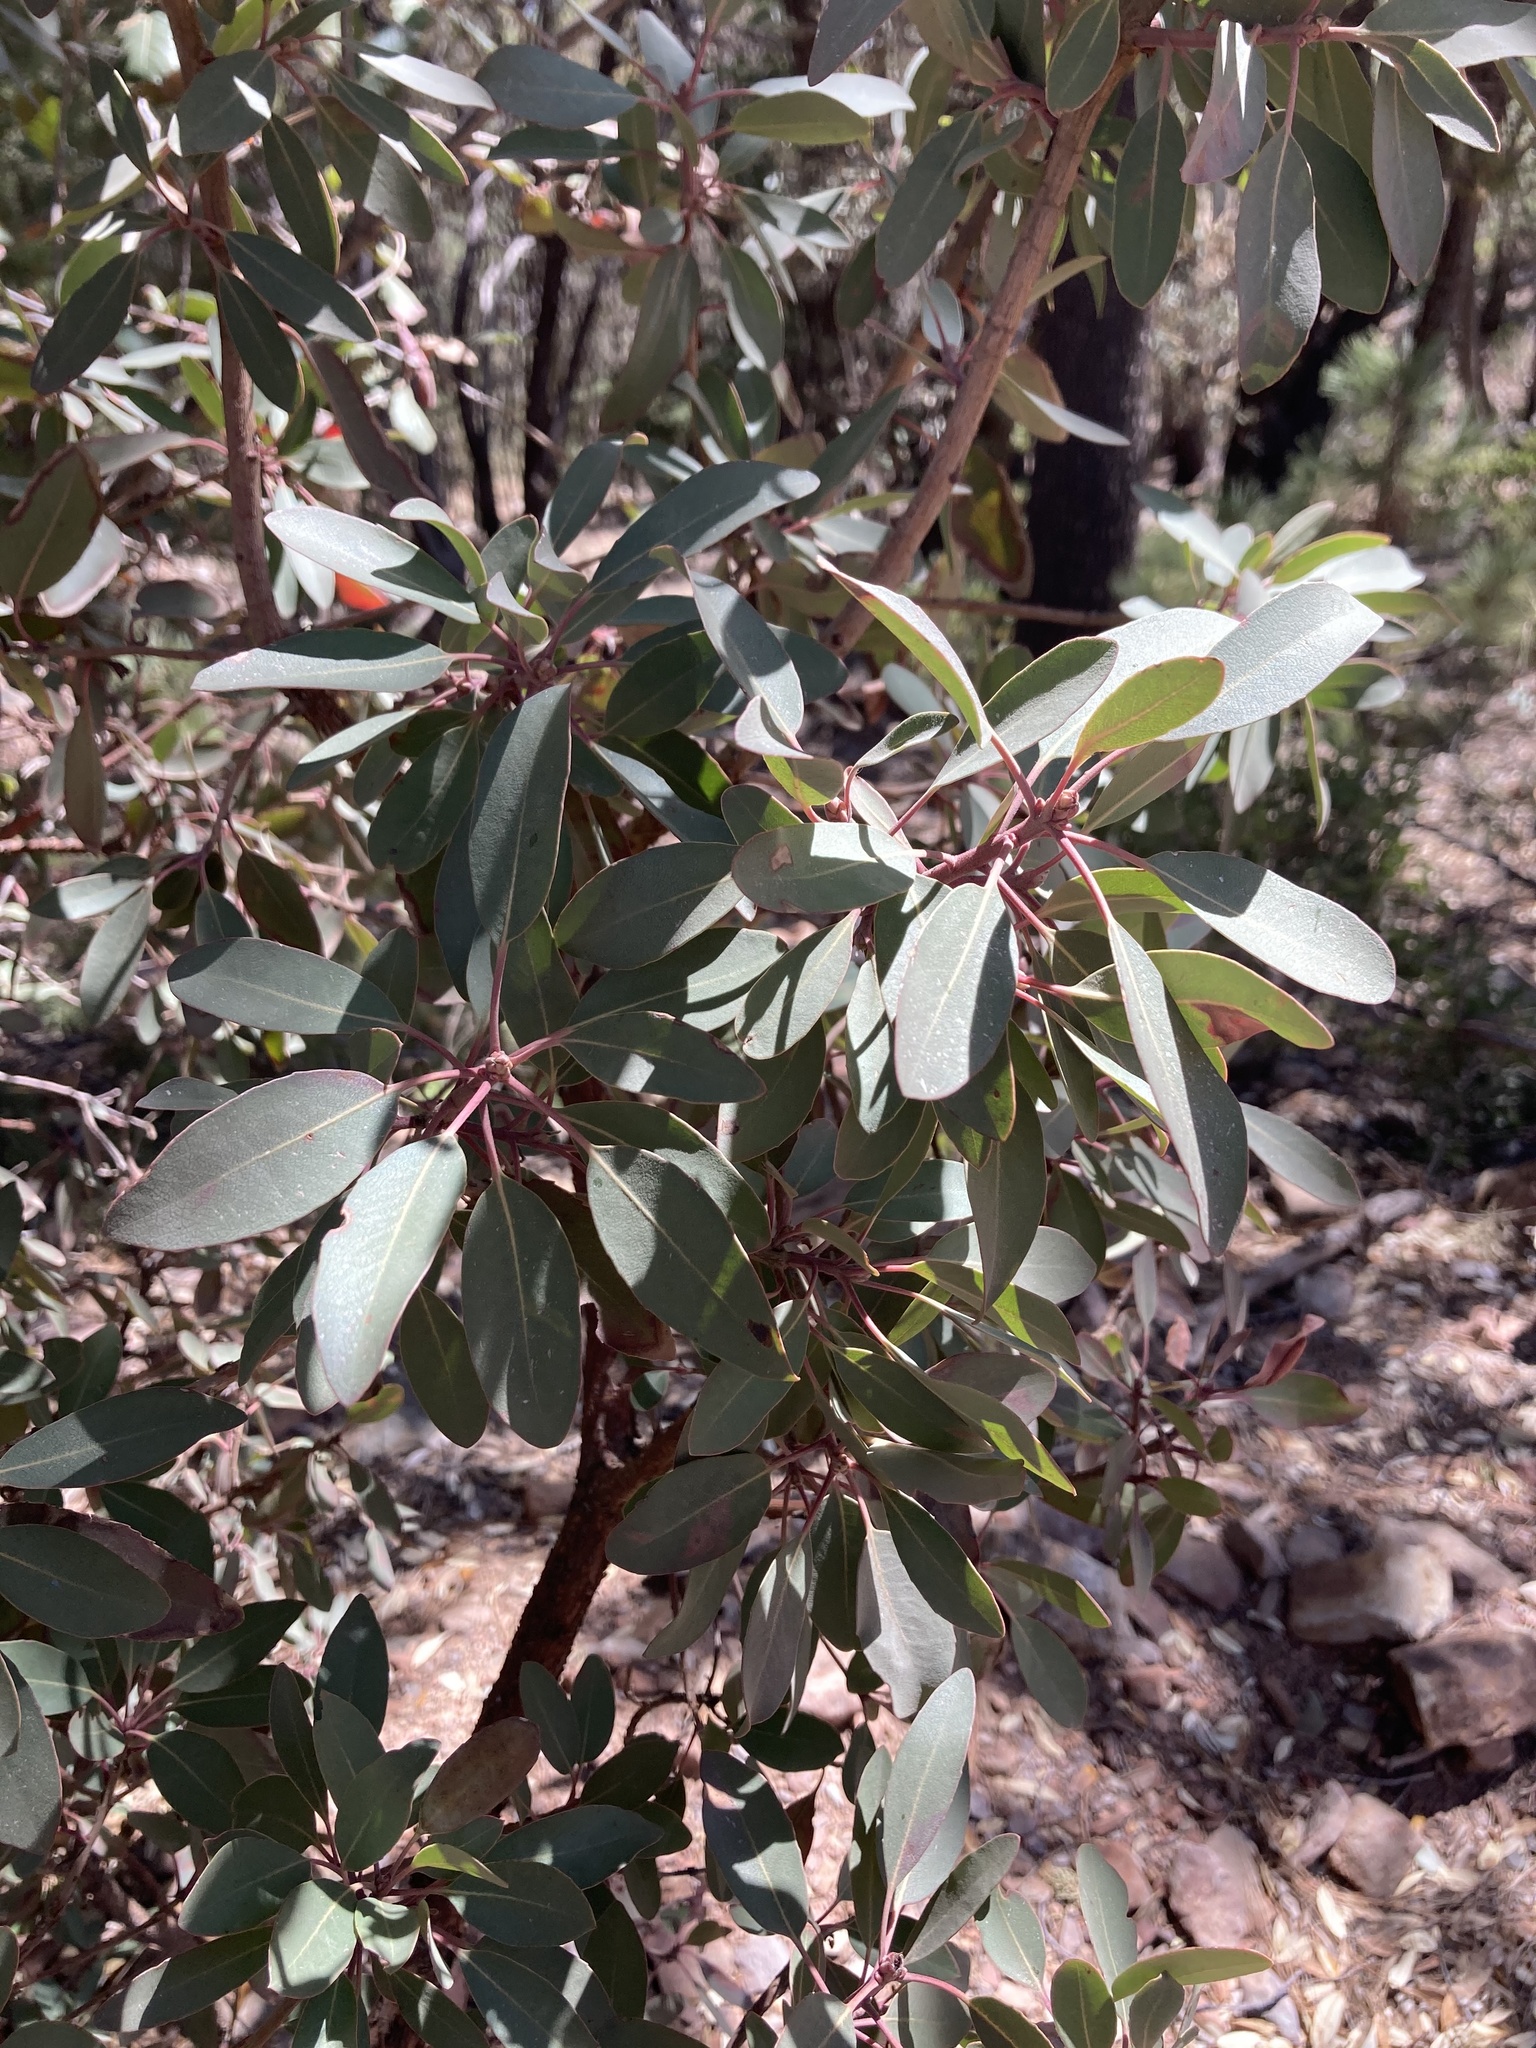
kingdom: Plantae
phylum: Tracheophyta
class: Magnoliopsida
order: Ericales
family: Ericaceae
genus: Arbutus
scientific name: Arbutus arizonica
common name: Arizona madrone
